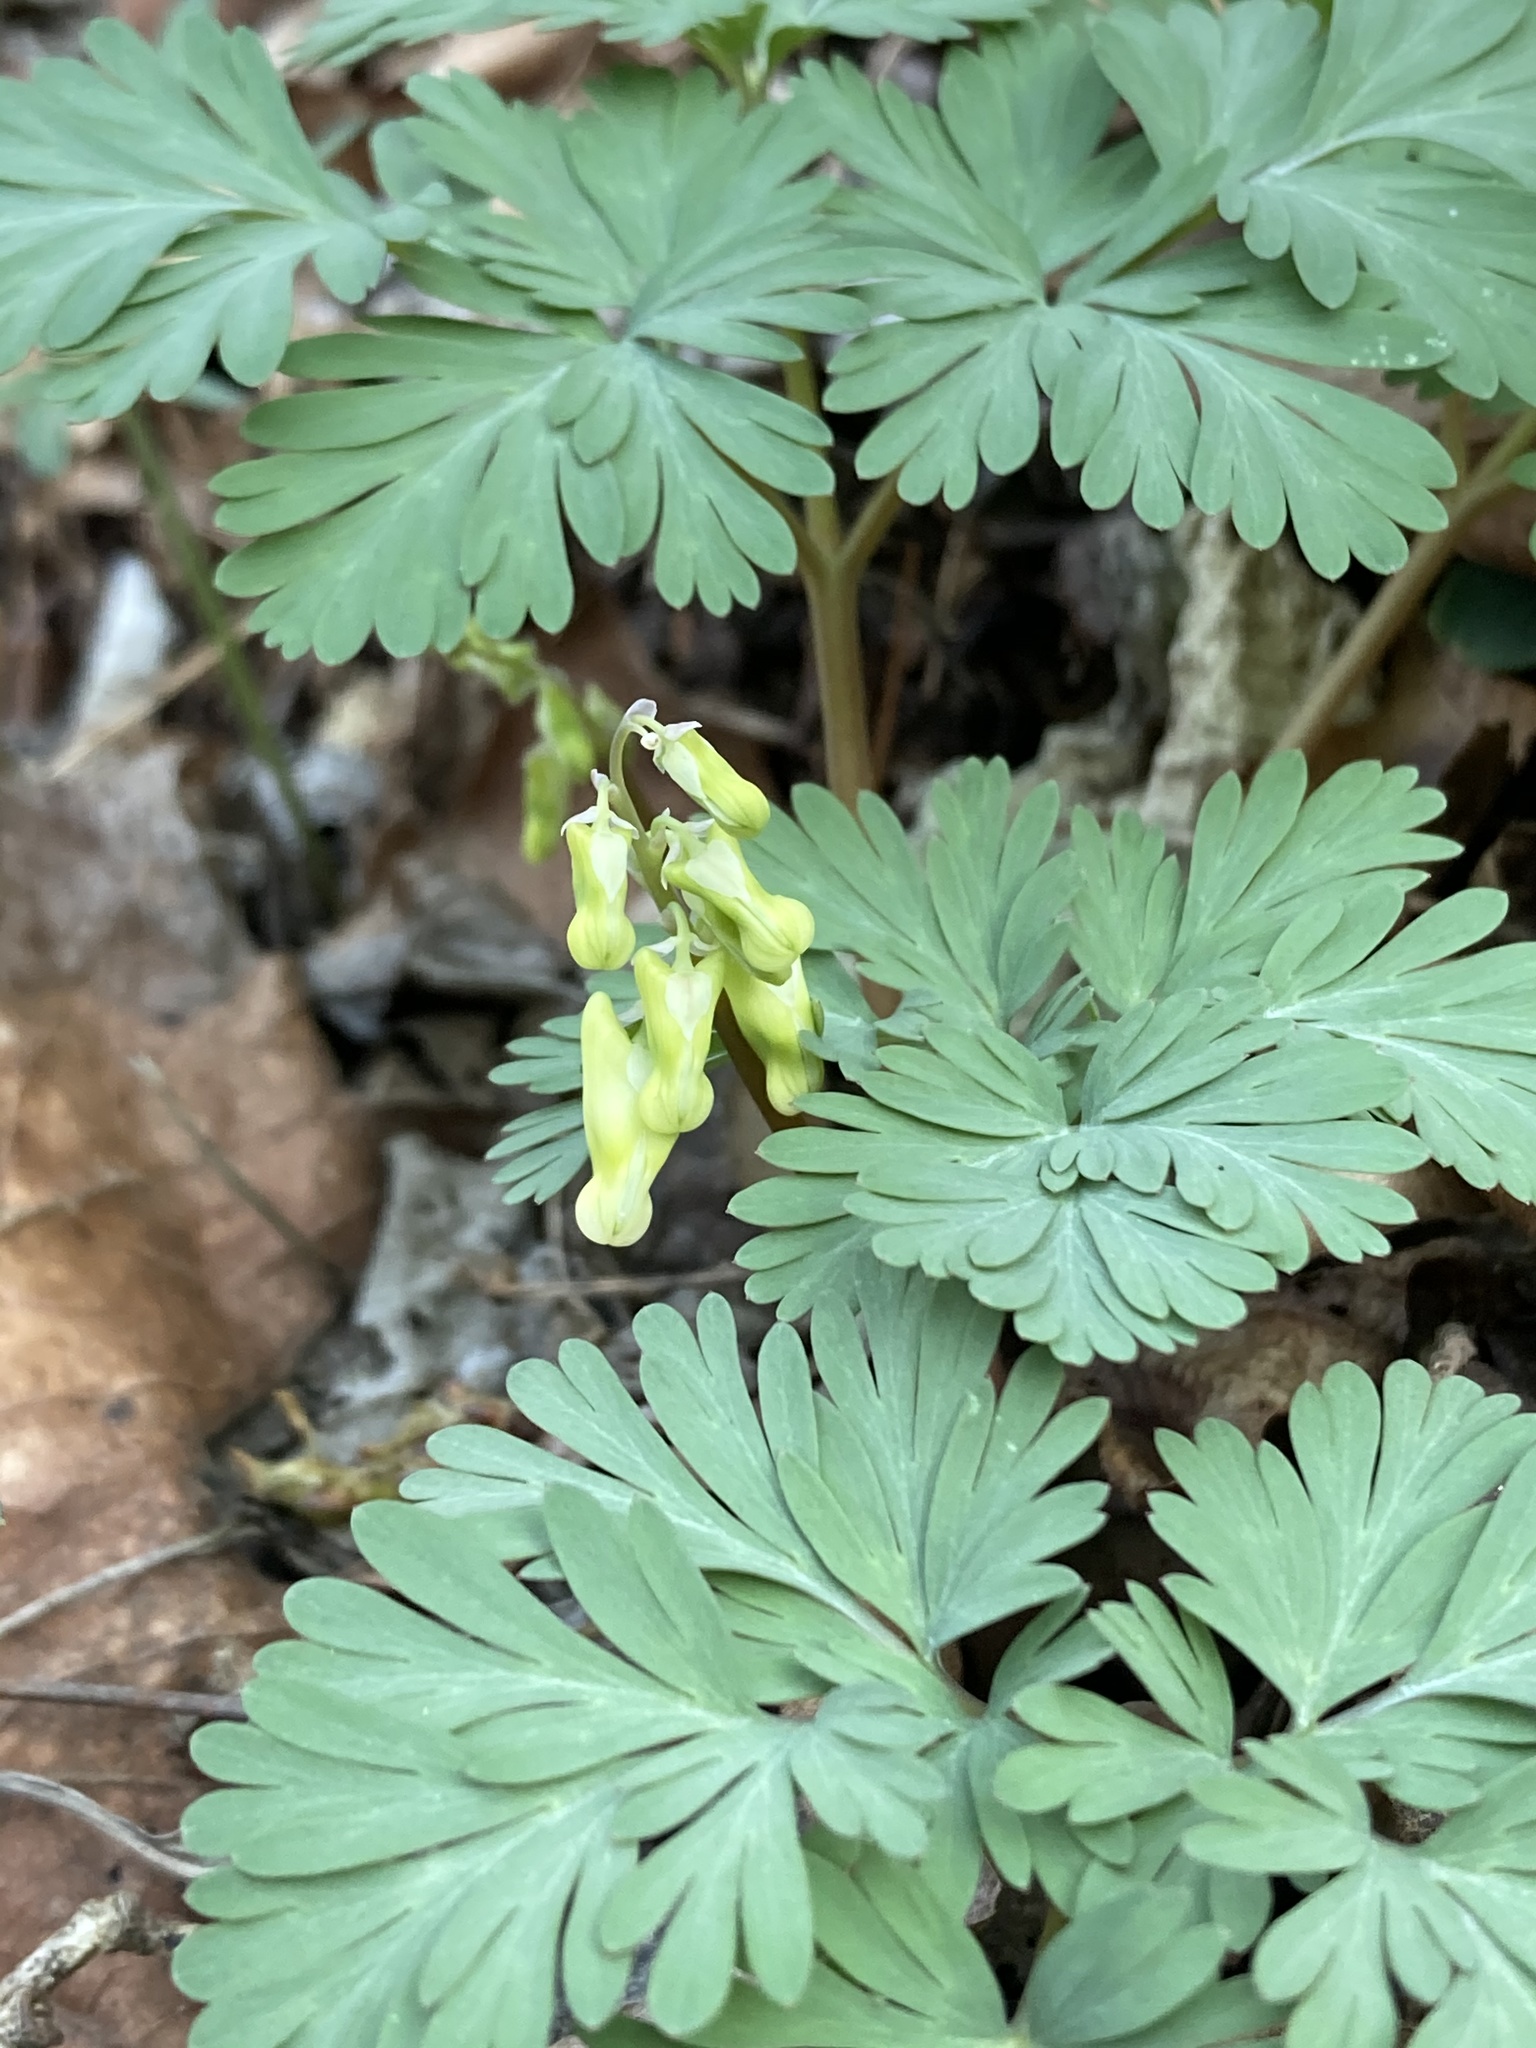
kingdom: Plantae
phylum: Tracheophyta
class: Magnoliopsida
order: Ranunculales
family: Papaveraceae
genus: Dicentra
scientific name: Dicentra cucullaria
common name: Dutchman's breeches
